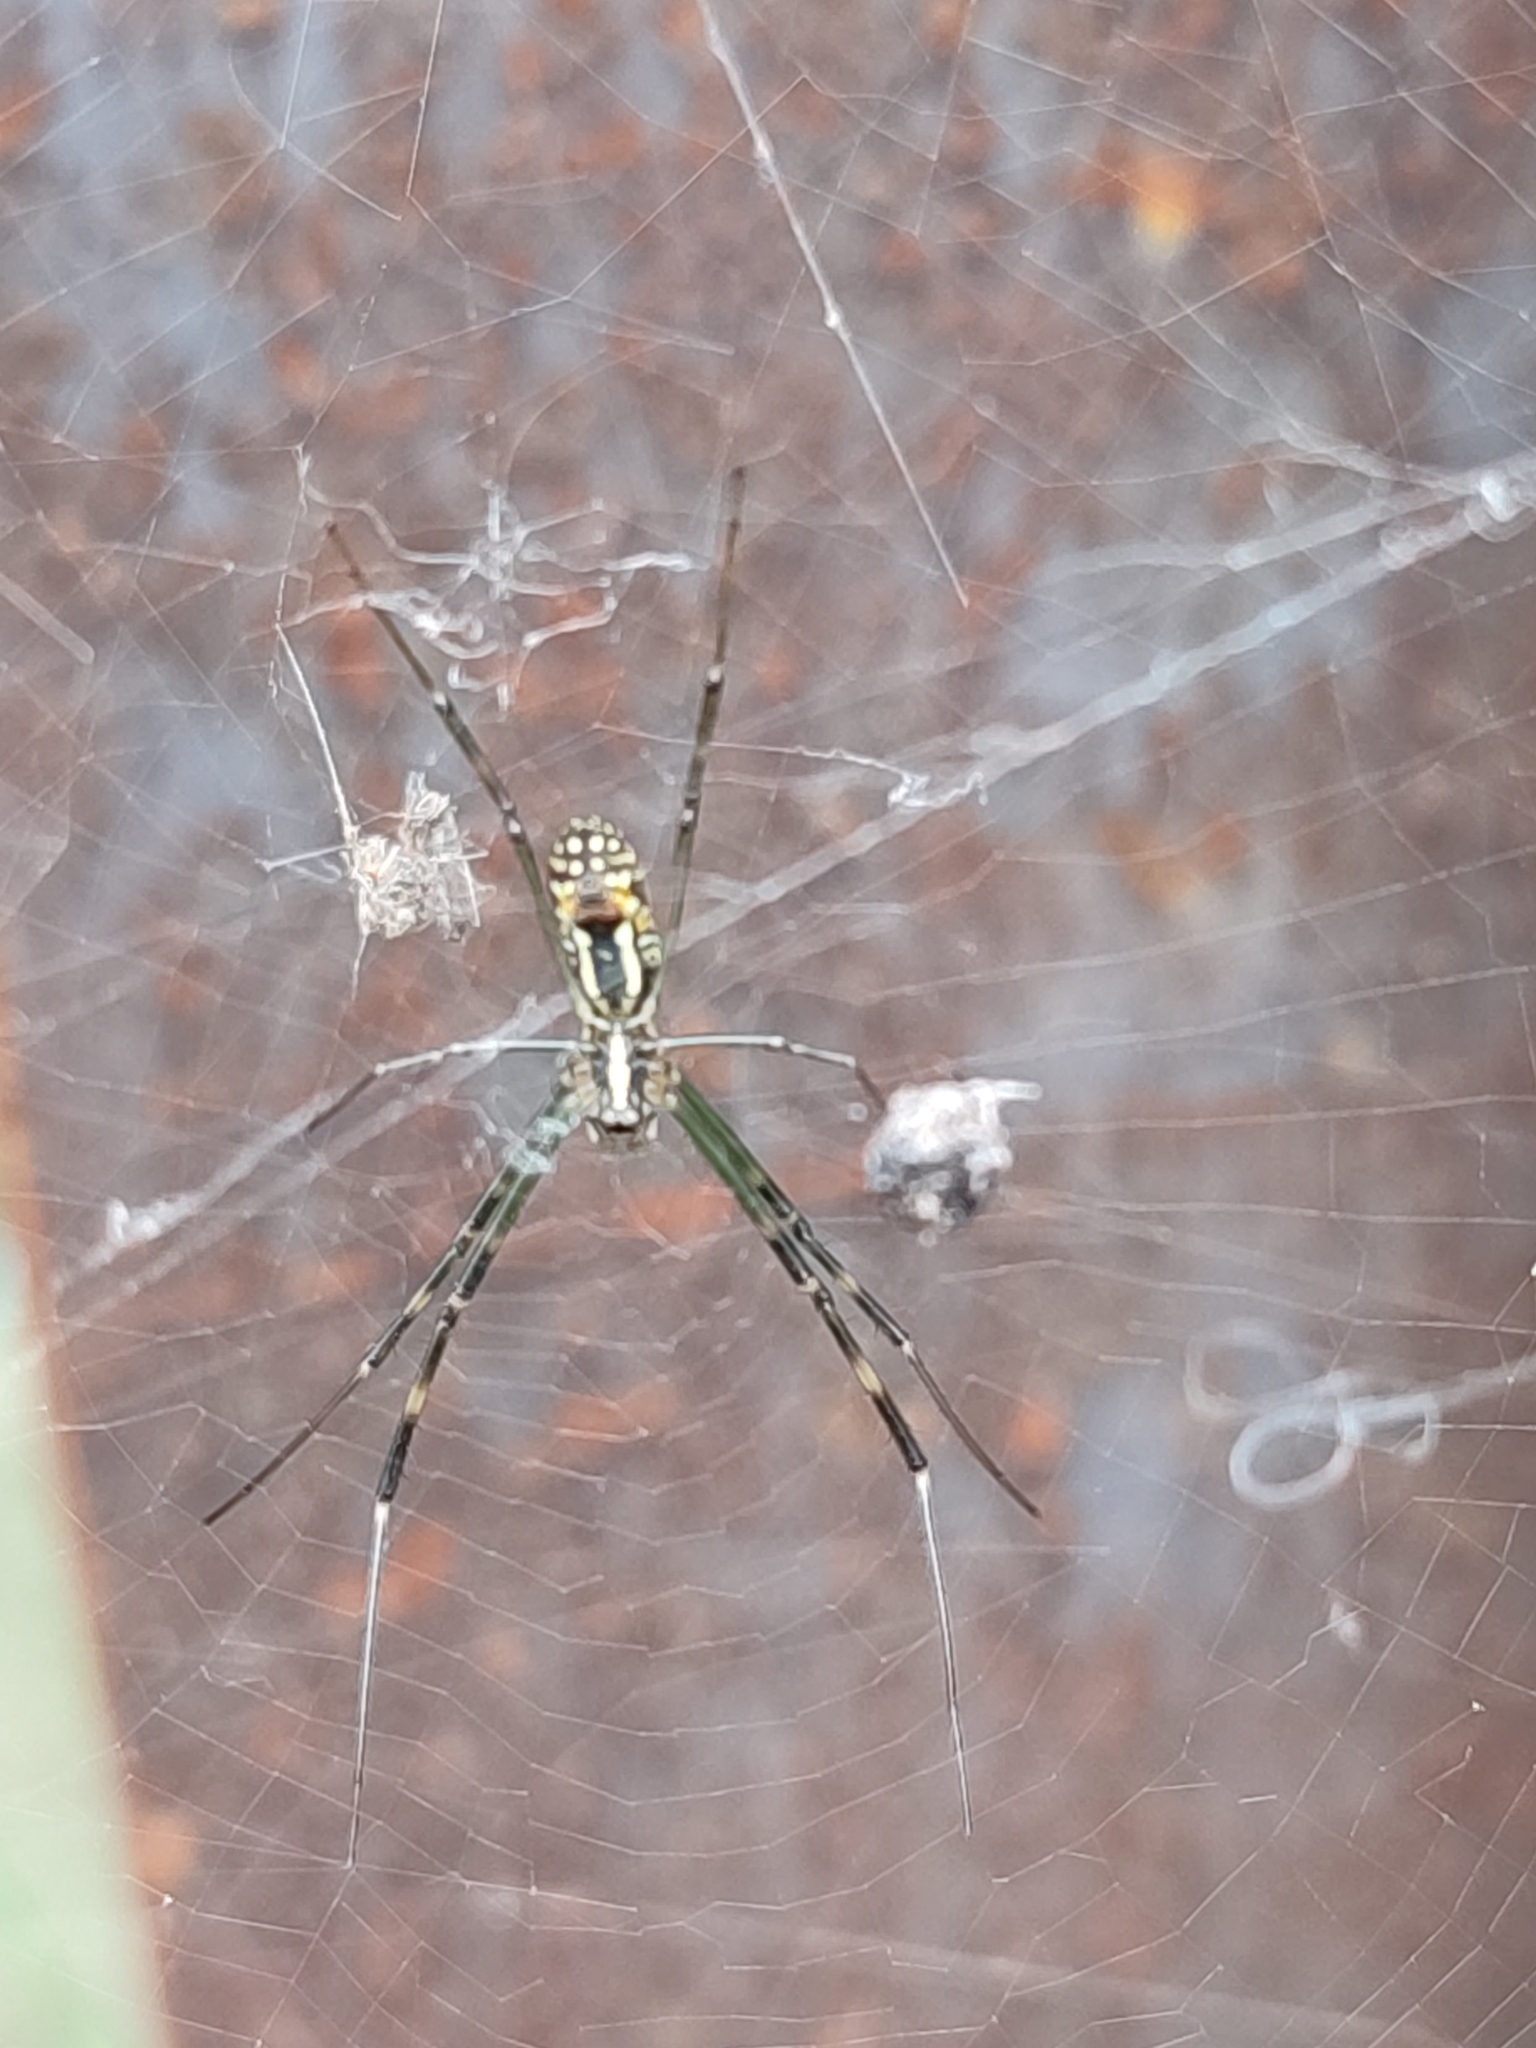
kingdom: Animalia
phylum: Arthropoda
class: Arachnida
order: Araneae
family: Araneidae
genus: Trichonephila
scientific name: Trichonephila clavata
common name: Jorō spider
